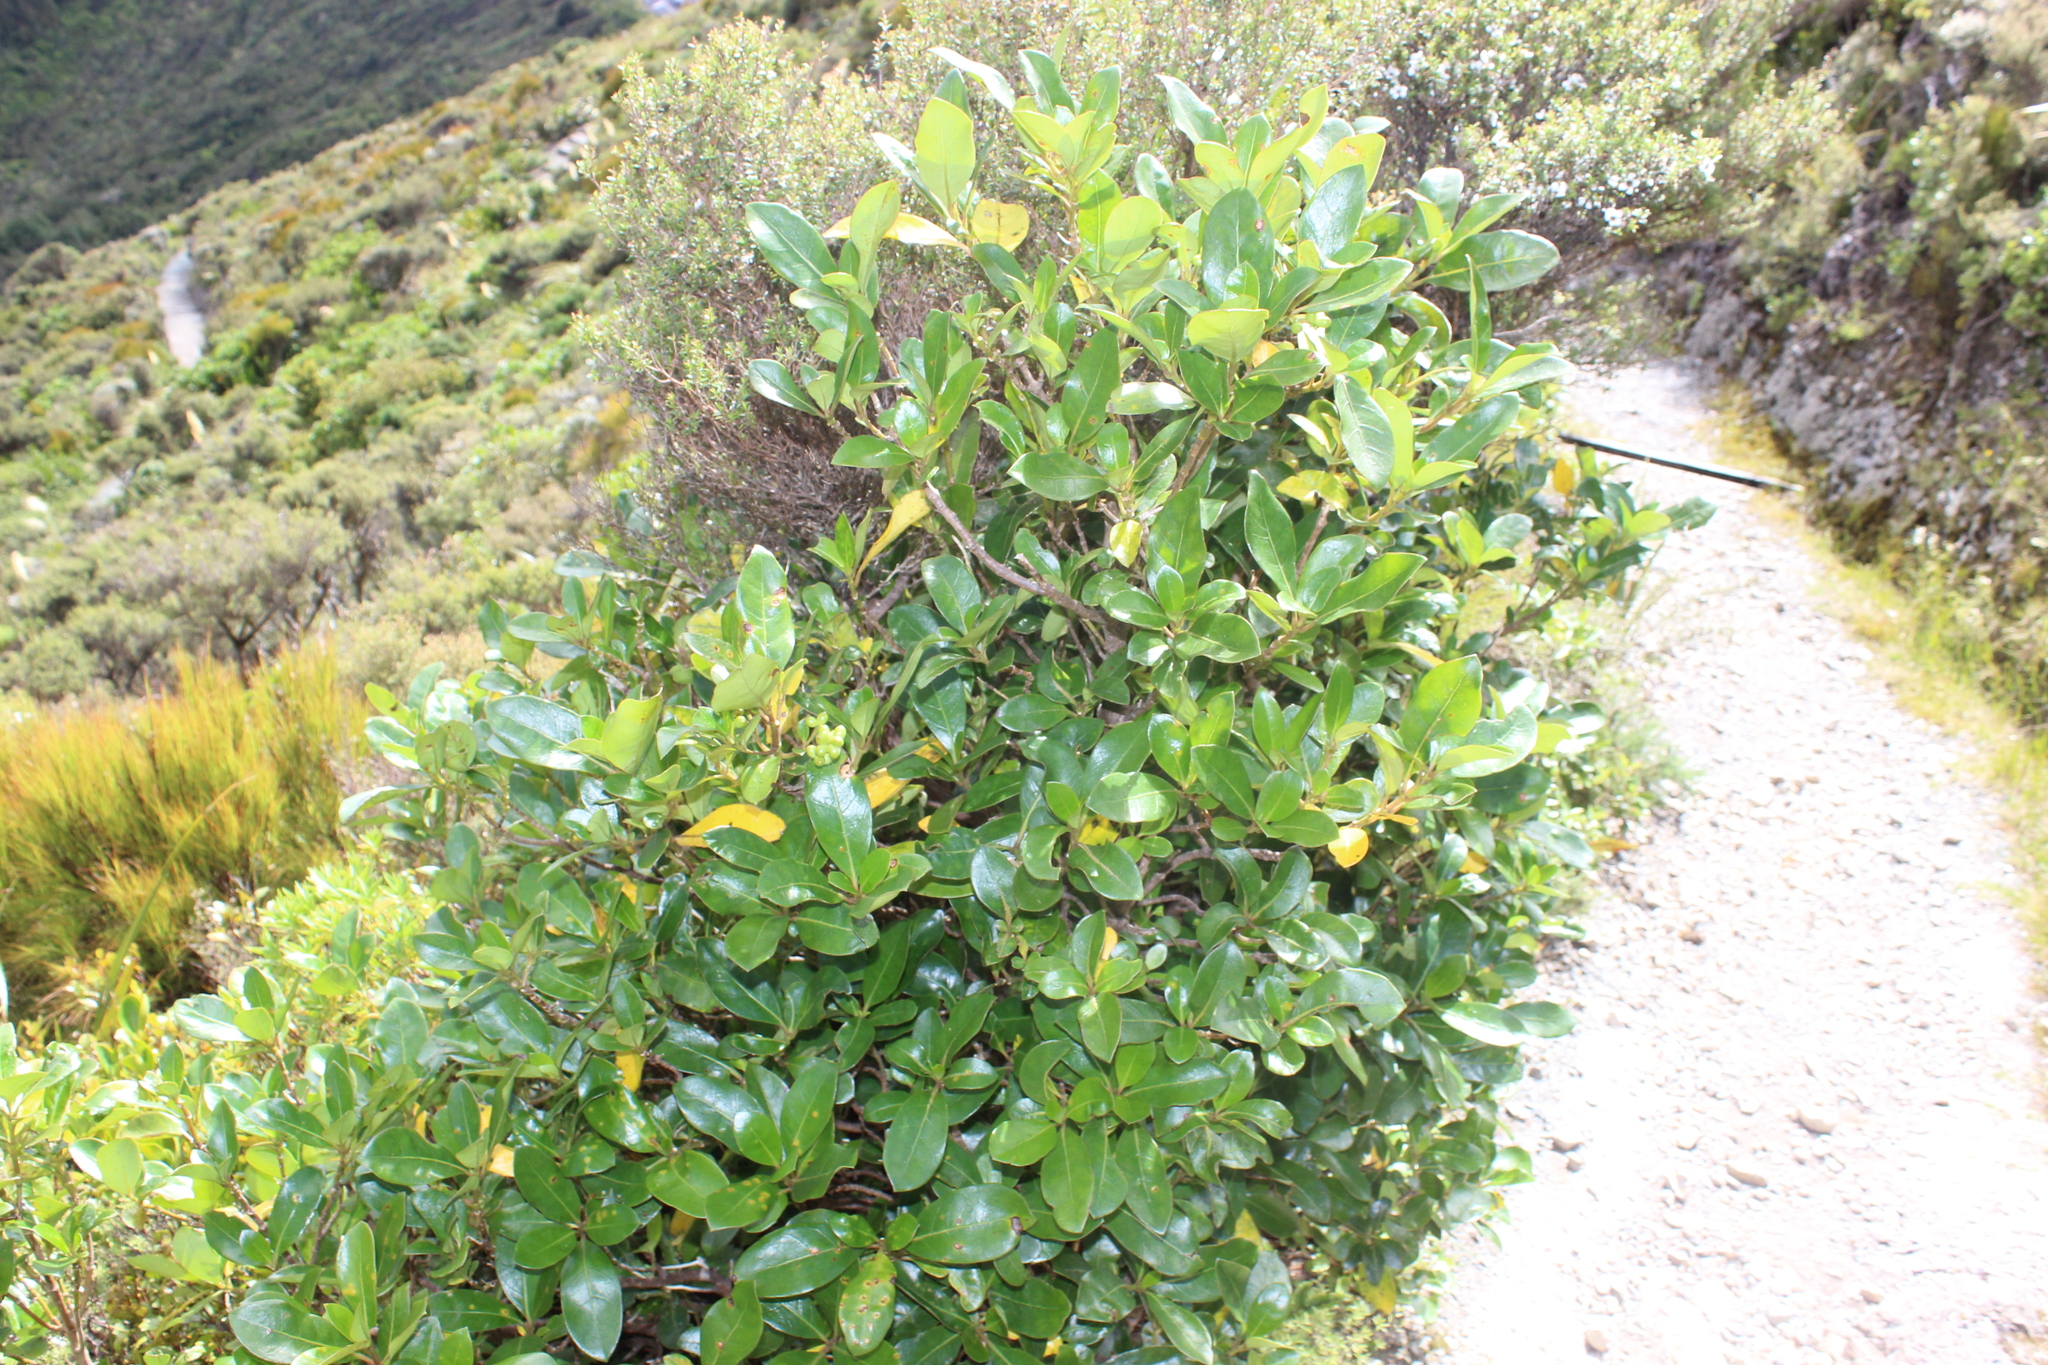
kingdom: Plantae
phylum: Tracheophyta
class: Magnoliopsida
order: Gentianales
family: Rubiaceae
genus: Coprosma
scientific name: Coprosma lucida
